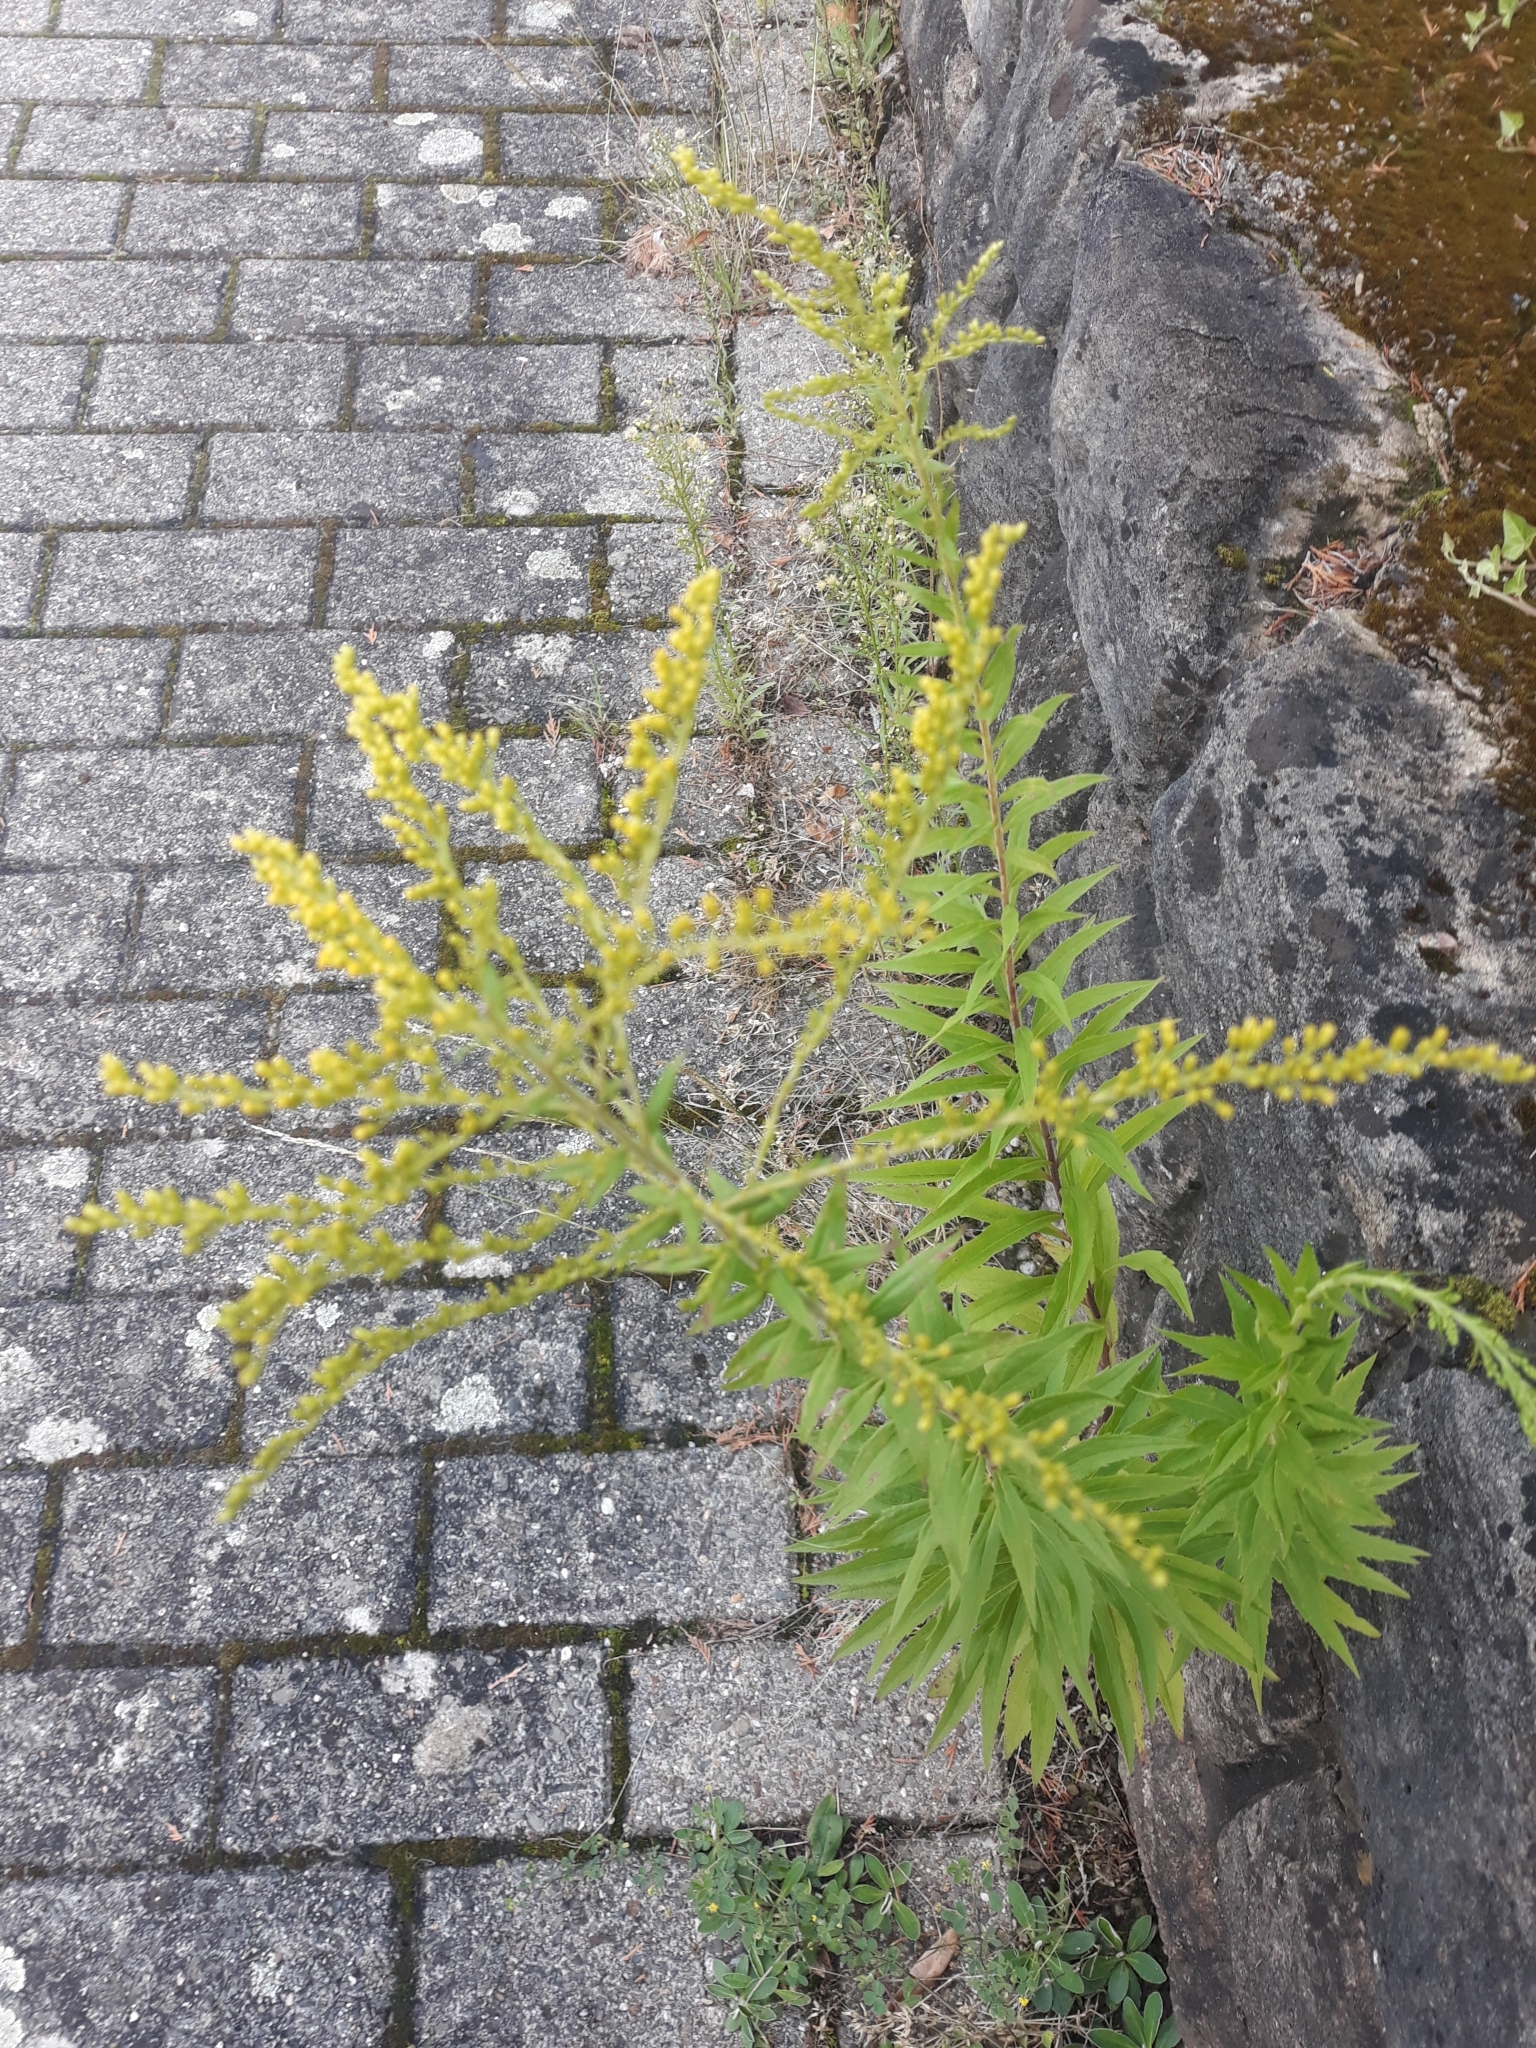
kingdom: Plantae
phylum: Tracheophyta
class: Magnoliopsida
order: Asterales
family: Asteraceae
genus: Solidago
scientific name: Solidago canadensis
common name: Canada goldenrod
